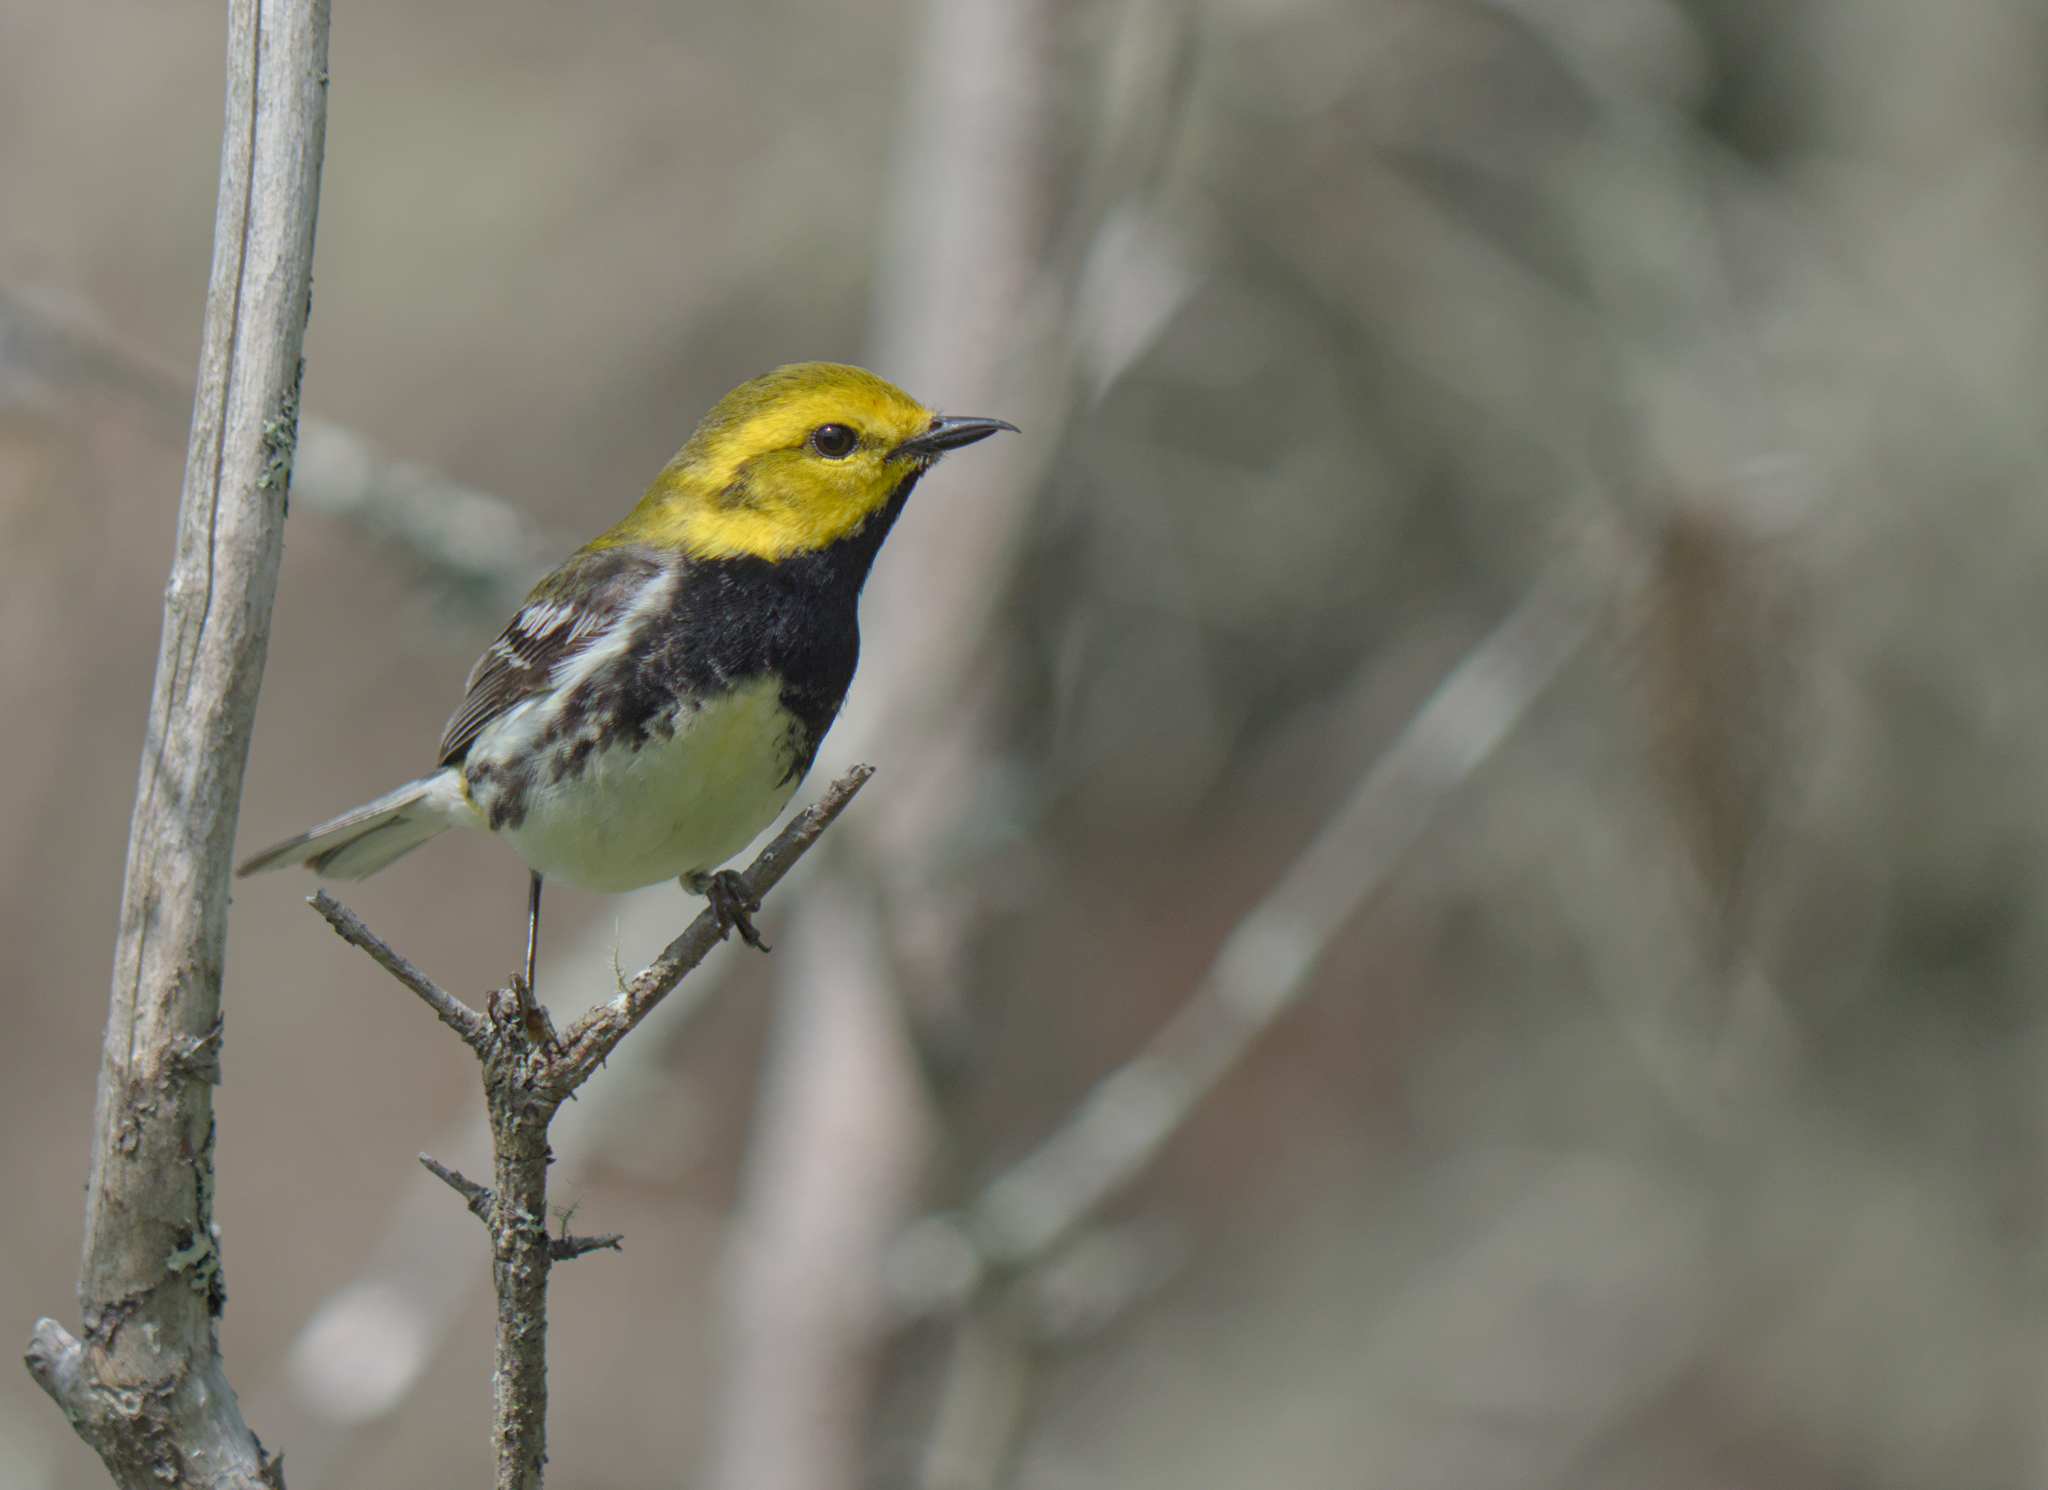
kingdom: Animalia
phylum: Chordata
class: Aves
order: Passeriformes
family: Parulidae
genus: Setophaga
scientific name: Setophaga virens
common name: Black-throated green warbler
